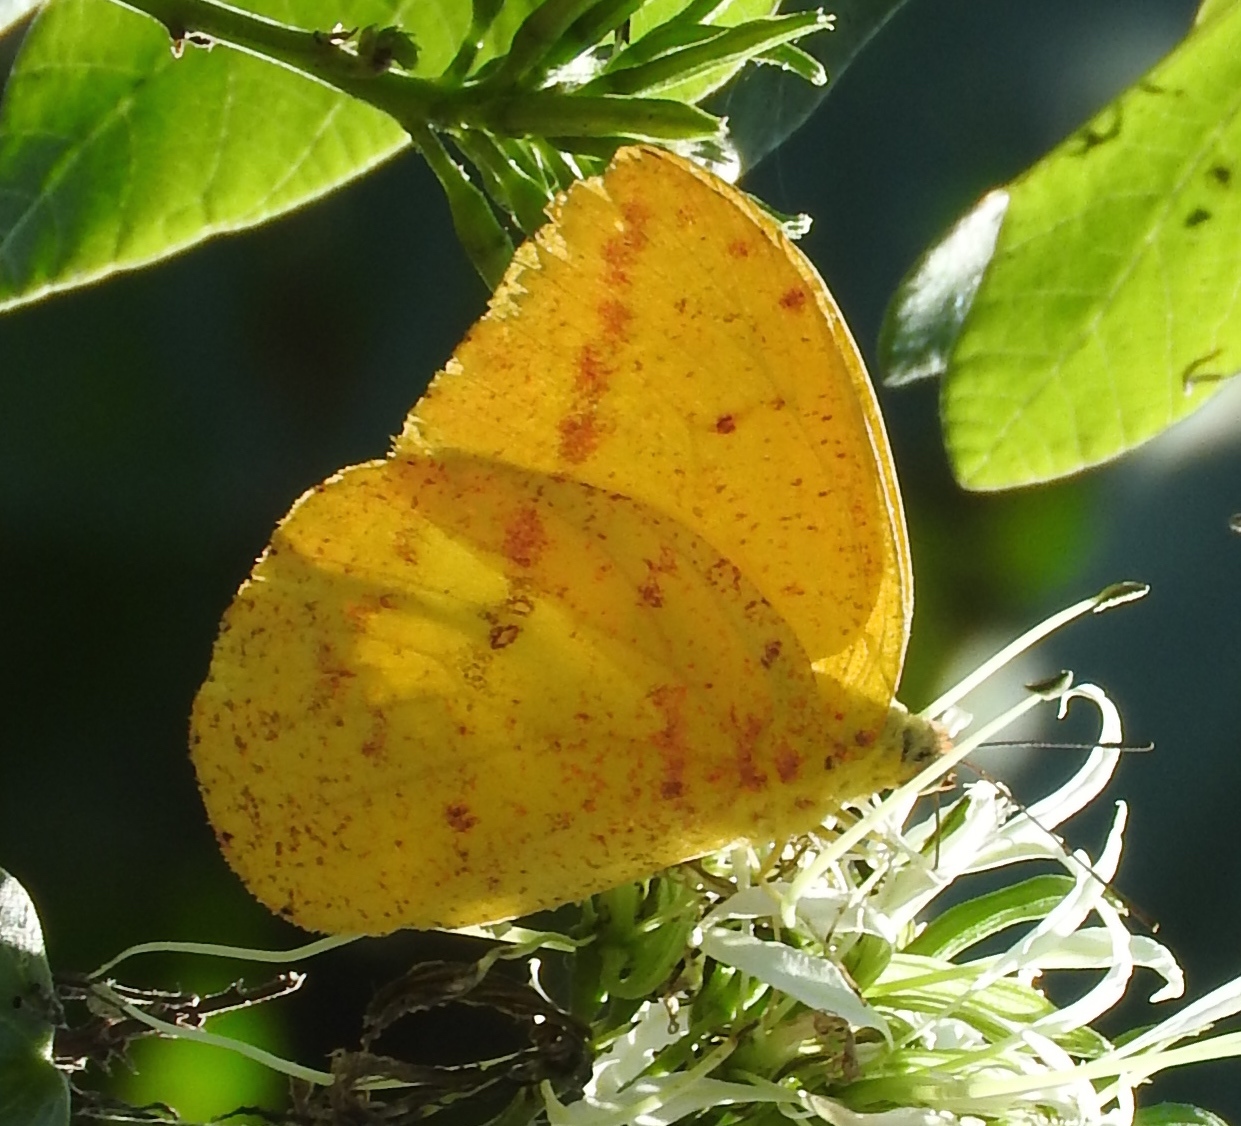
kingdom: Animalia
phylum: Arthropoda
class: Insecta
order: Lepidoptera
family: Pieridae
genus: Phoebis
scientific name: Phoebis agarithe
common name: Large orange sulphur
